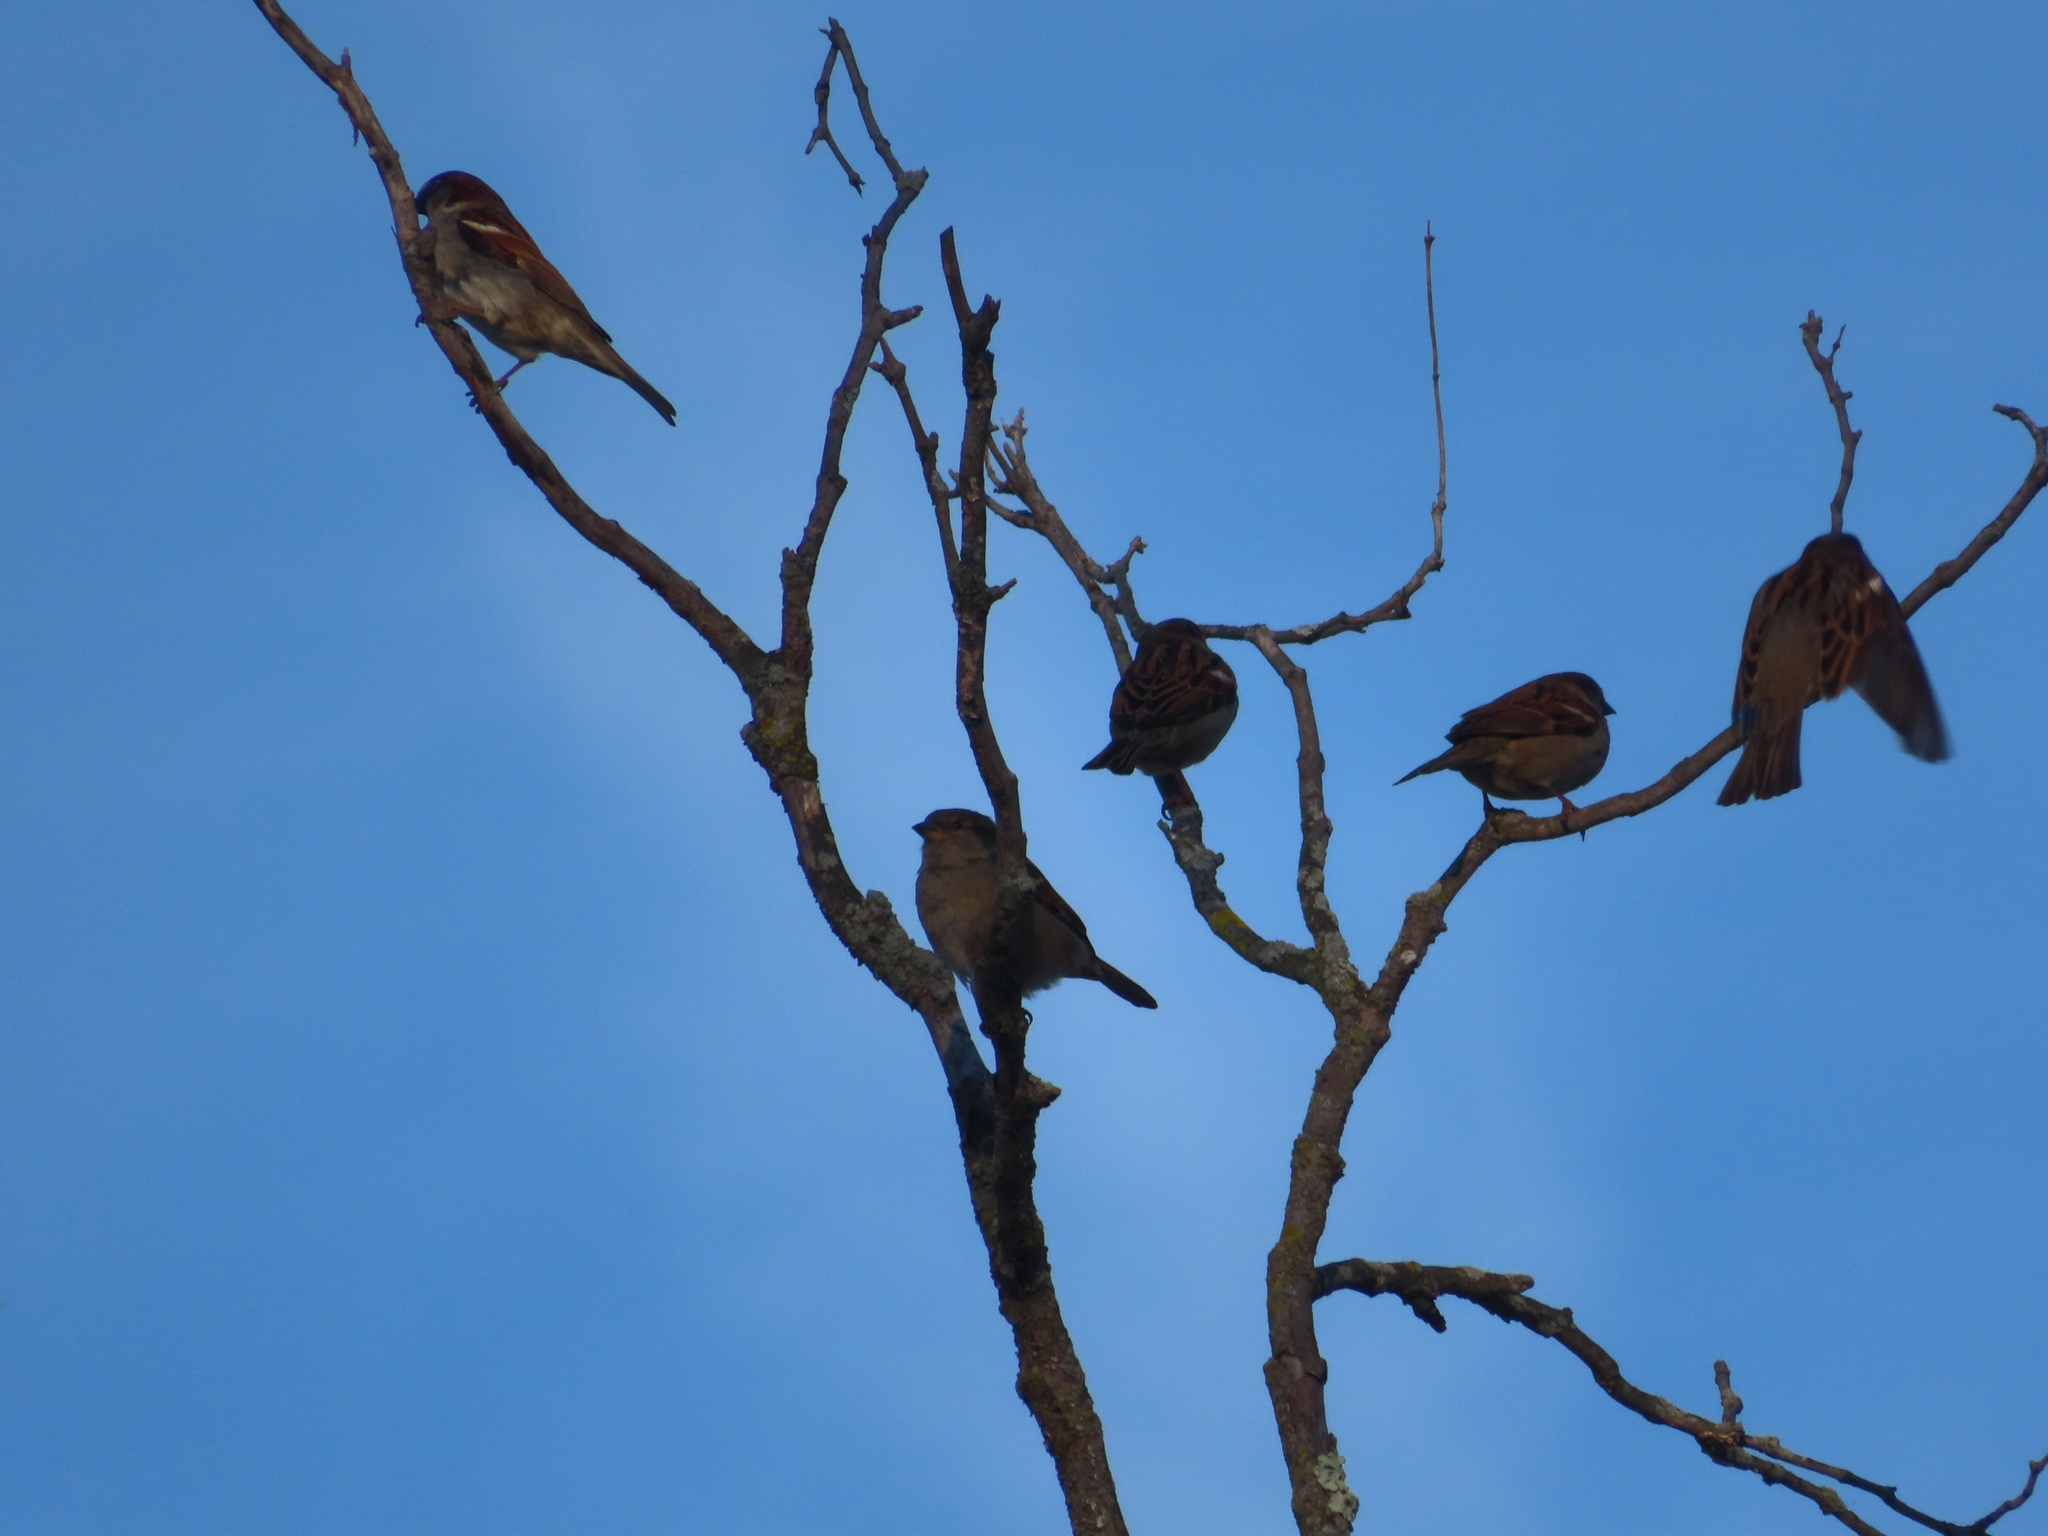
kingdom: Animalia
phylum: Chordata
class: Aves
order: Passeriformes
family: Passeridae
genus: Passer
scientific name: Passer domesticus
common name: House sparrow
